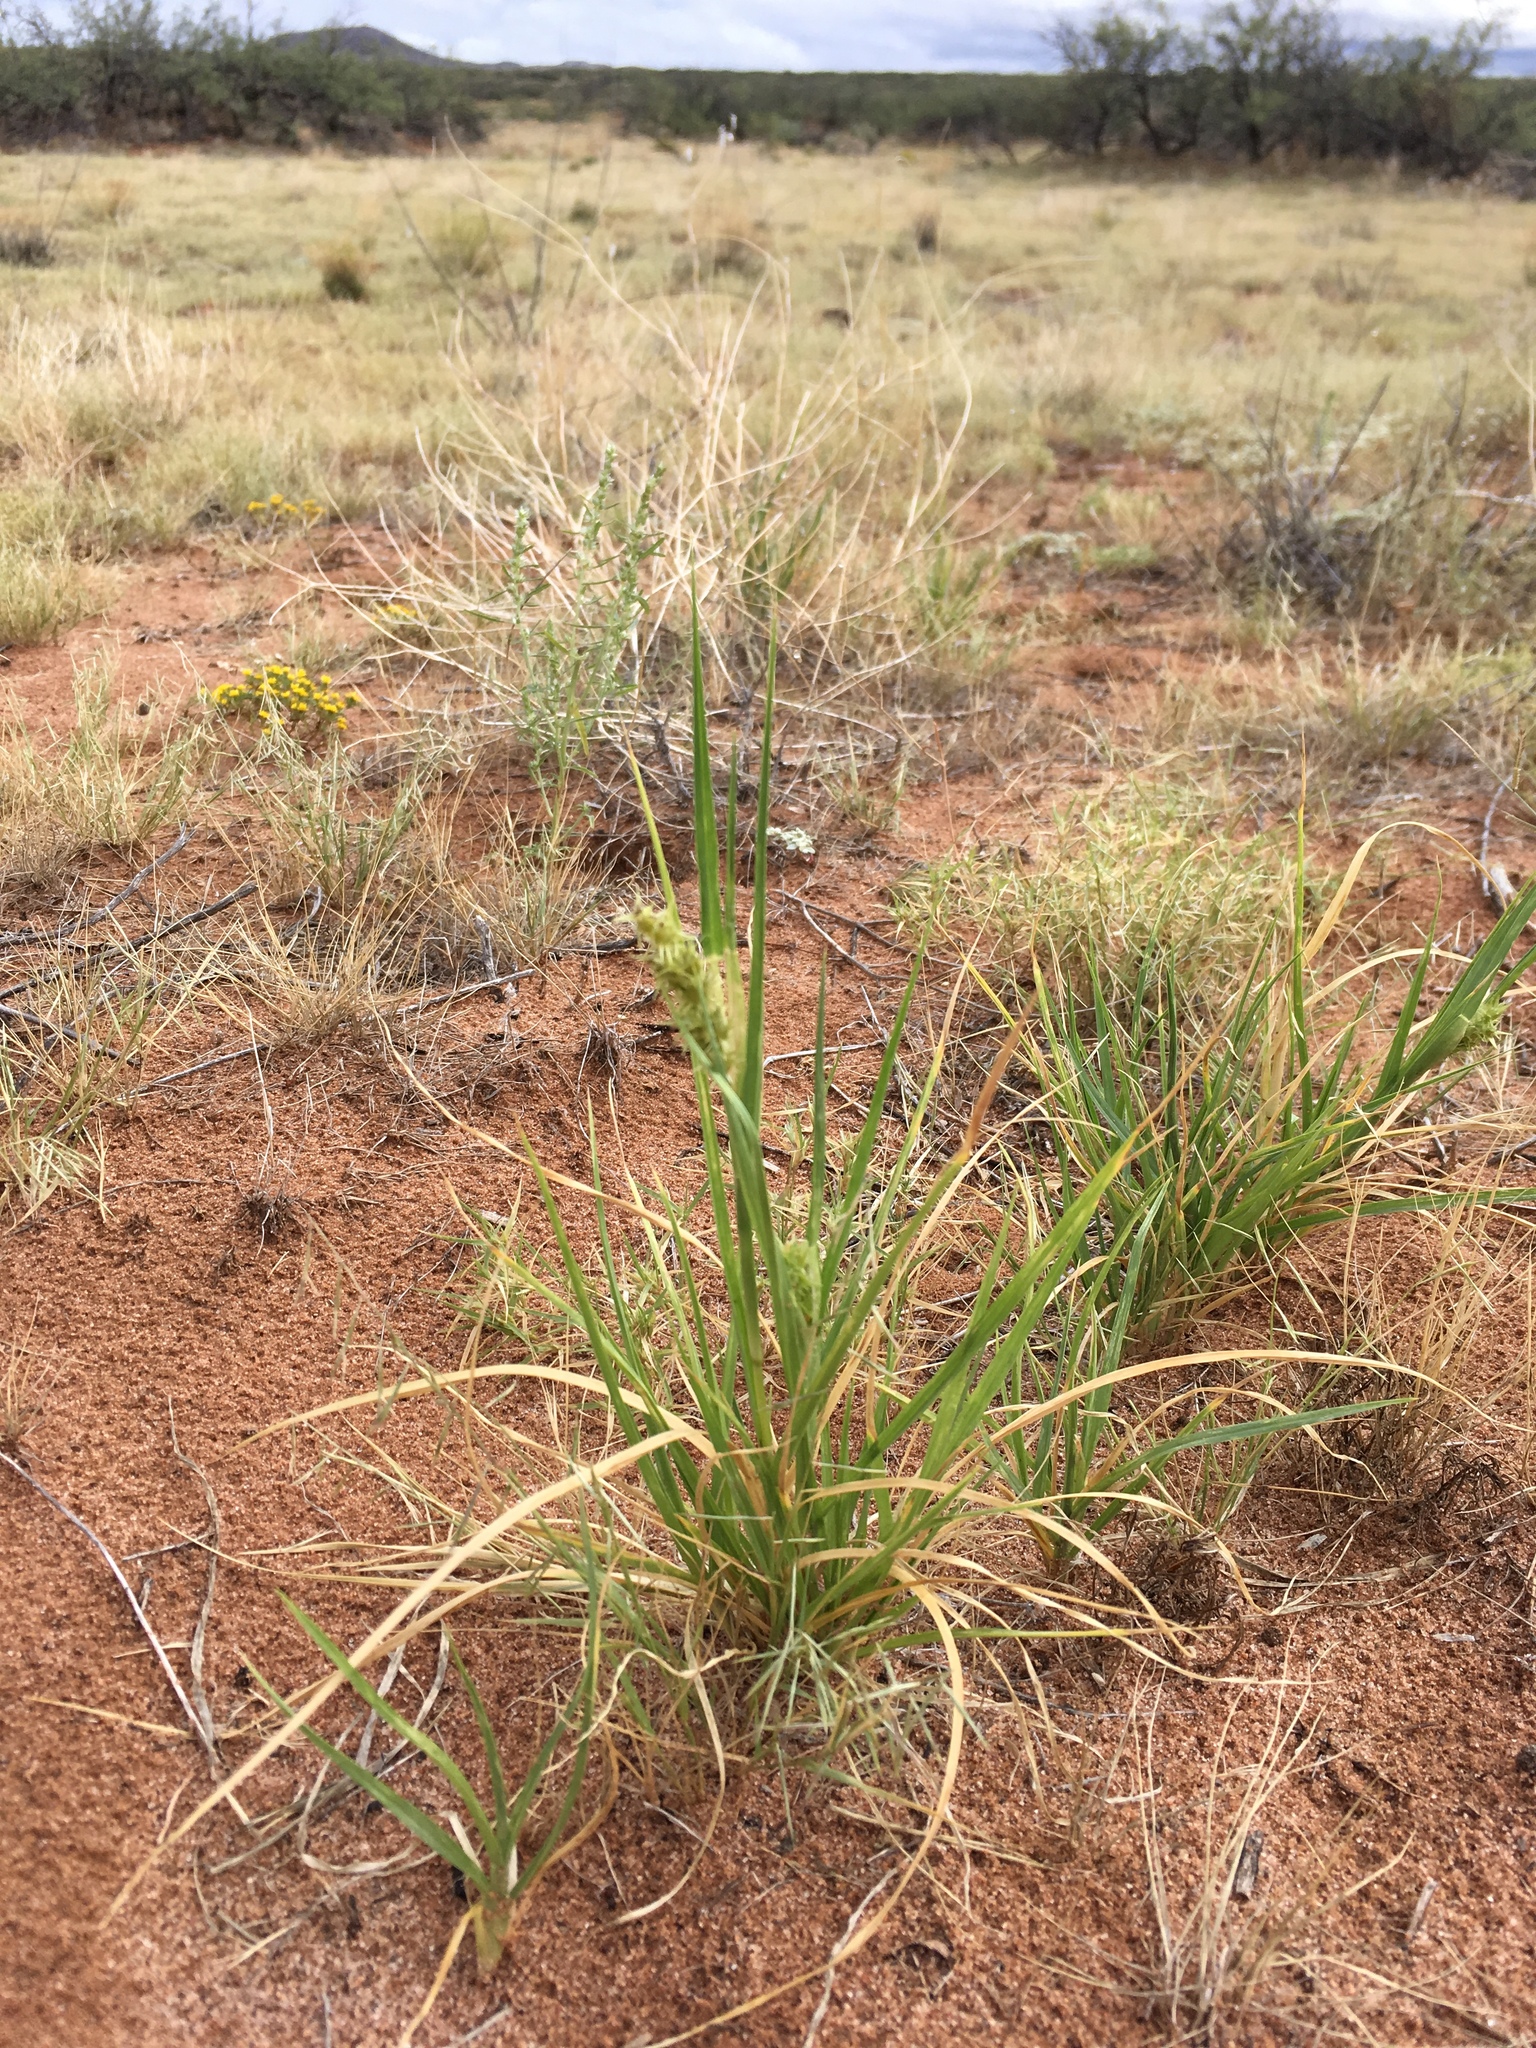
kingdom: Plantae
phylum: Tracheophyta
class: Liliopsida
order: Poales
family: Poaceae
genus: Cenchrus
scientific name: Cenchrus spinifex
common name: Coast sandbur
